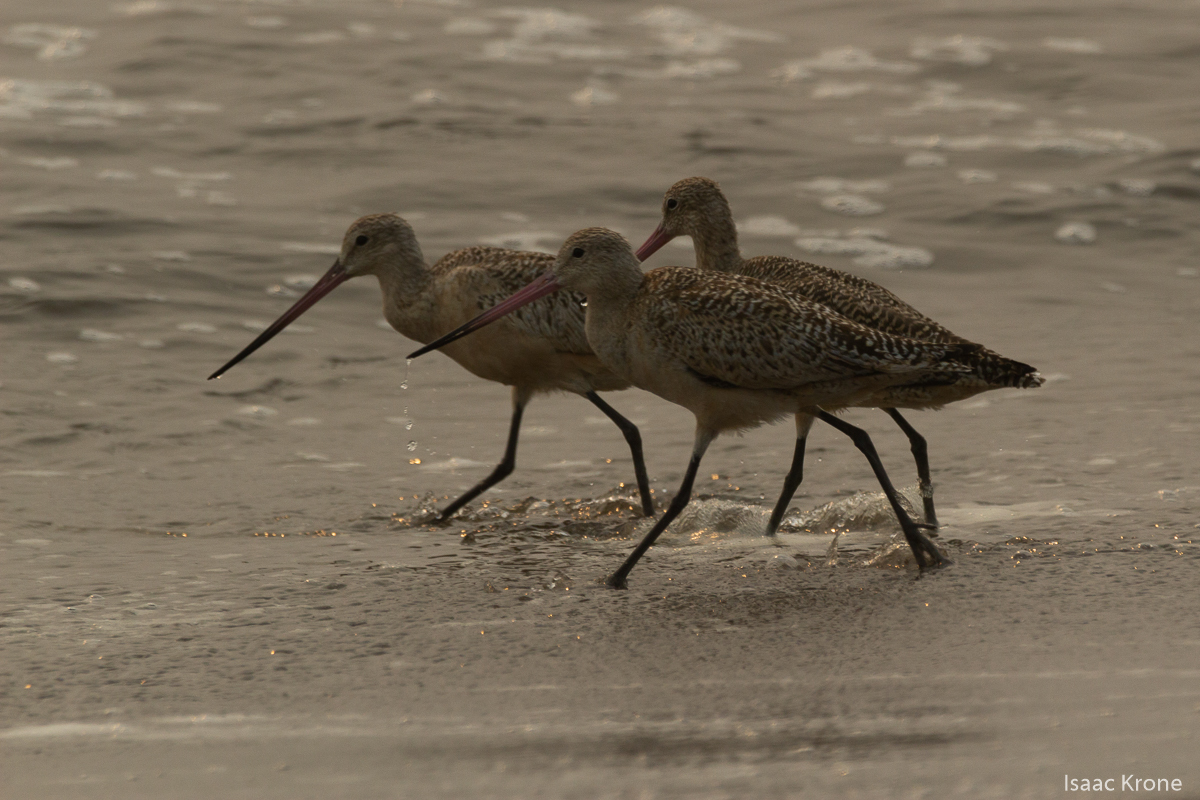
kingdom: Animalia
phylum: Chordata
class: Aves
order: Charadriiformes
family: Scolopacidae
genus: Limosa
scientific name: Limosa fedoa
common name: Marbled godwit
